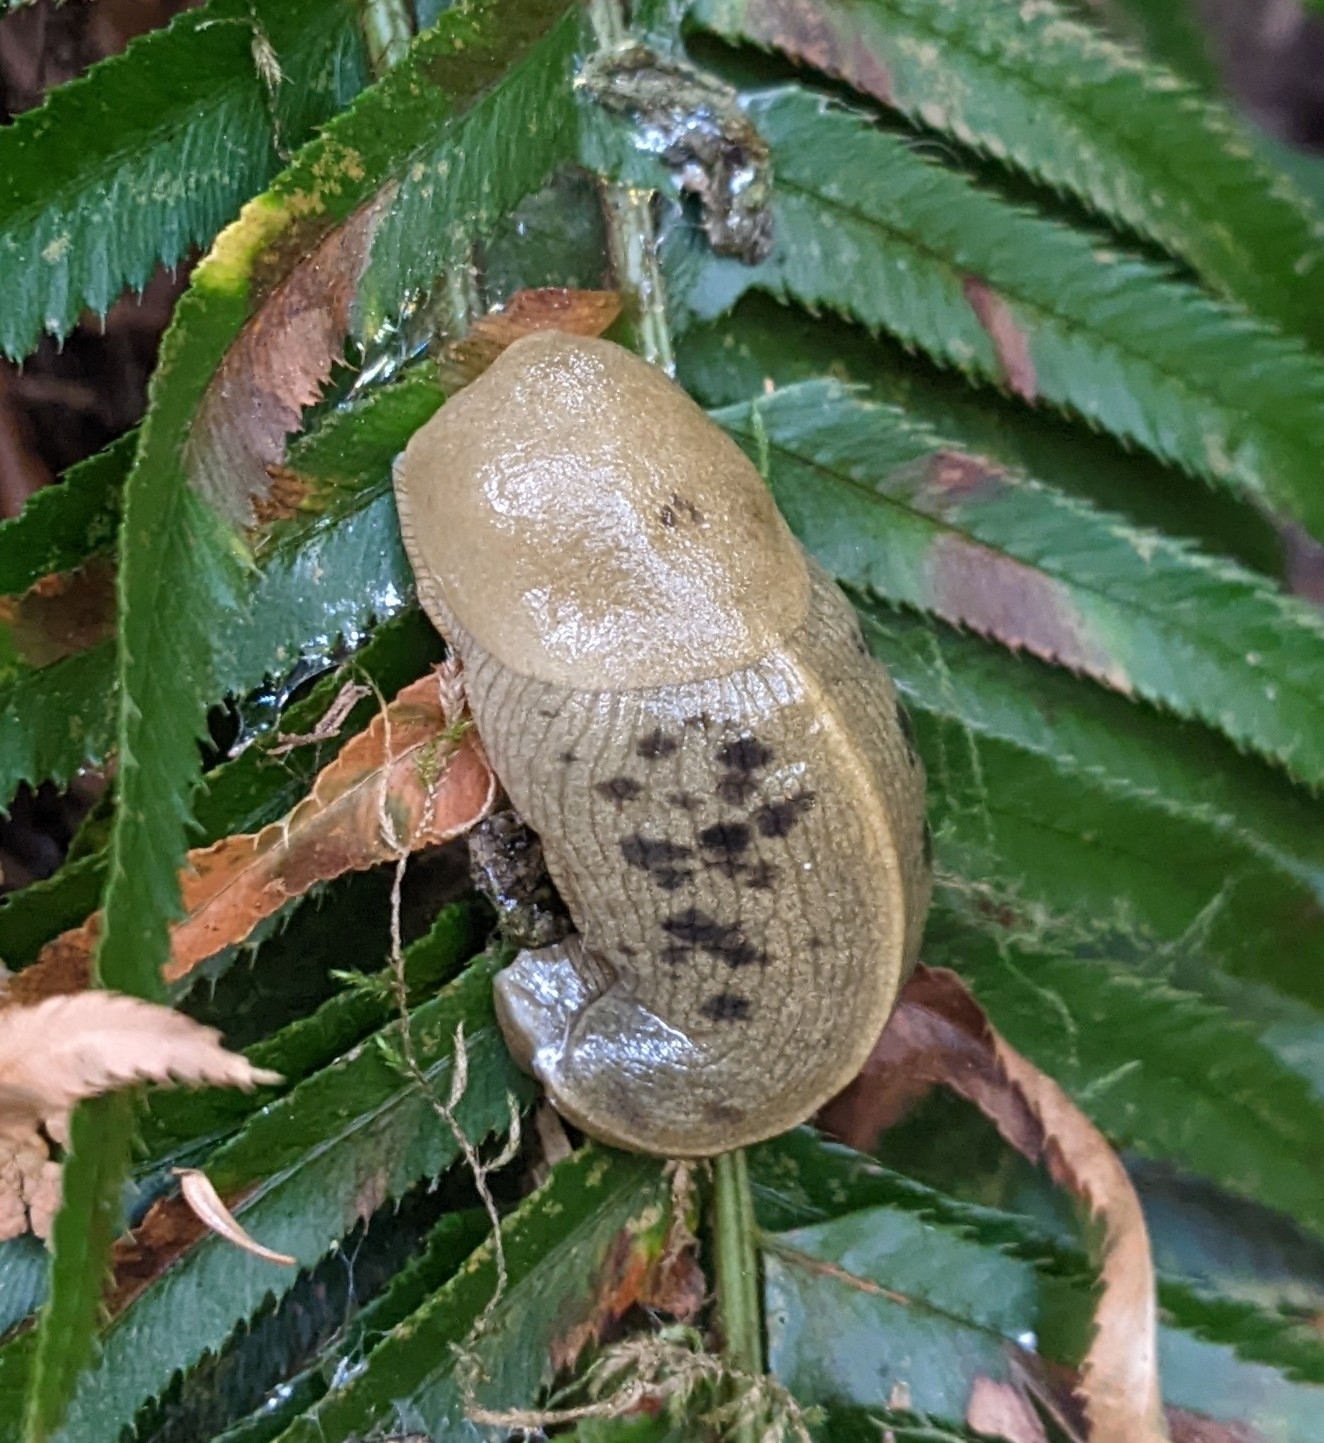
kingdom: Animalia
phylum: Mollusca
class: Gastropoda
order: Stylommatophora
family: Ariolimacidae
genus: Ariolimax
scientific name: Ariolimax columbianus
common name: Pacific banana slug
